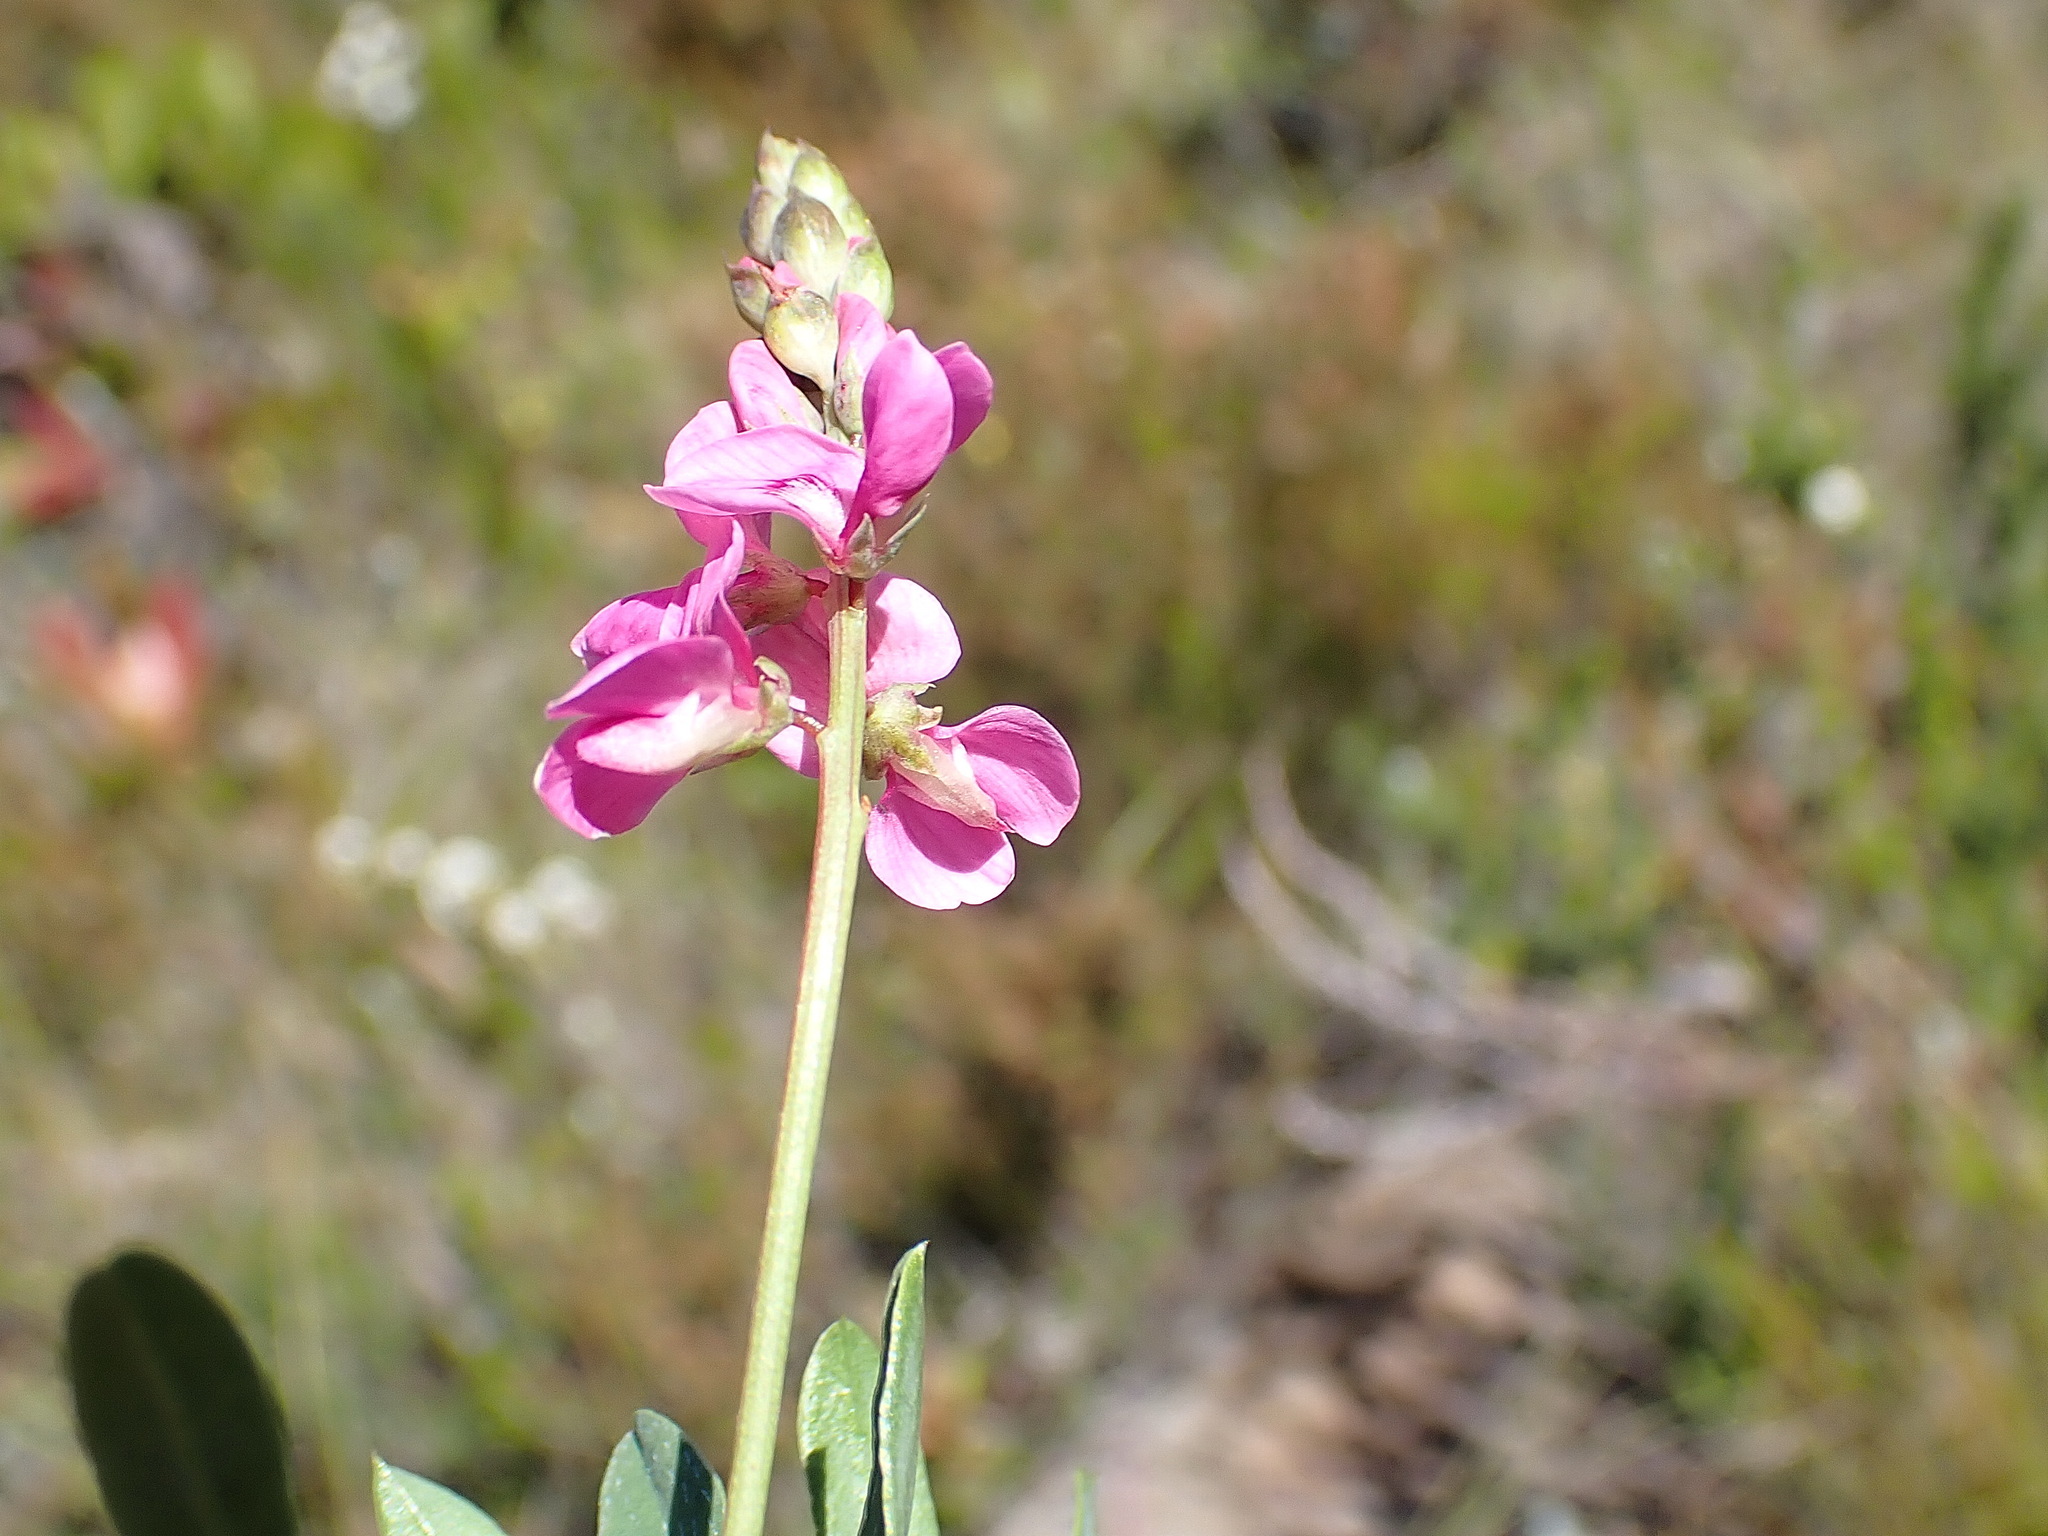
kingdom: Plantae
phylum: Tracheophyta
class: Magnoliopsida
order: Fabales
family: Fabaceae
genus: Indigofera
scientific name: Indigofera monostachya
